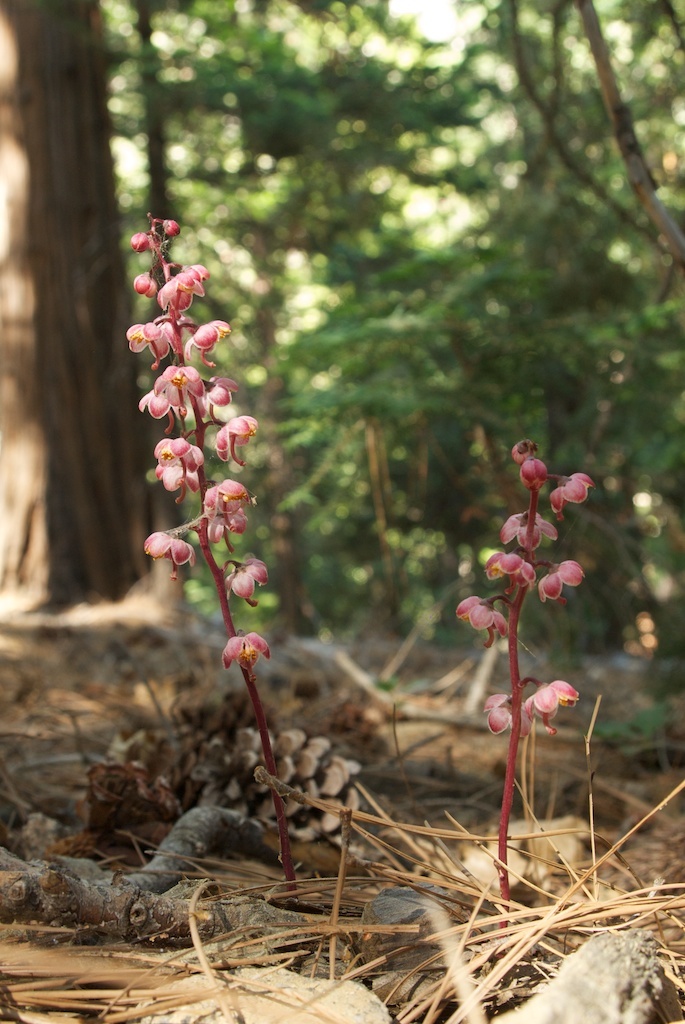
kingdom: Plantae
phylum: Tracheophyta
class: Magnoliopsida
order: Ericales
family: Ericaceae
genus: Pyrola
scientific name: Pyrola aphylla
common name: Leafless wintergreen
